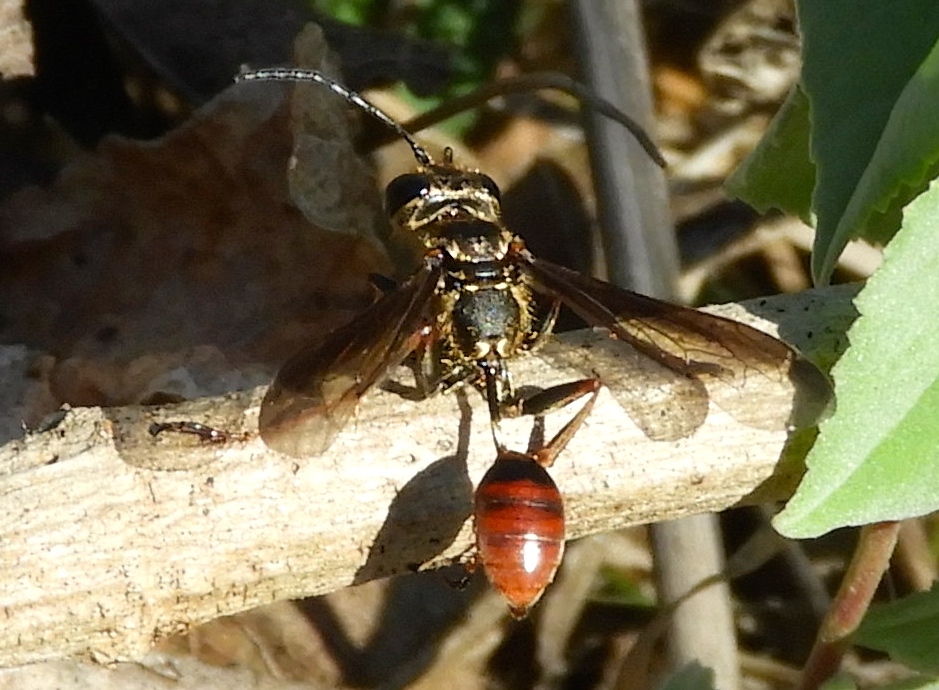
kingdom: Animalia
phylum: Arthropoda
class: Insecta
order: Hymenoptera
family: Sphecidae
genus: Isodontia
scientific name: Isodontia
